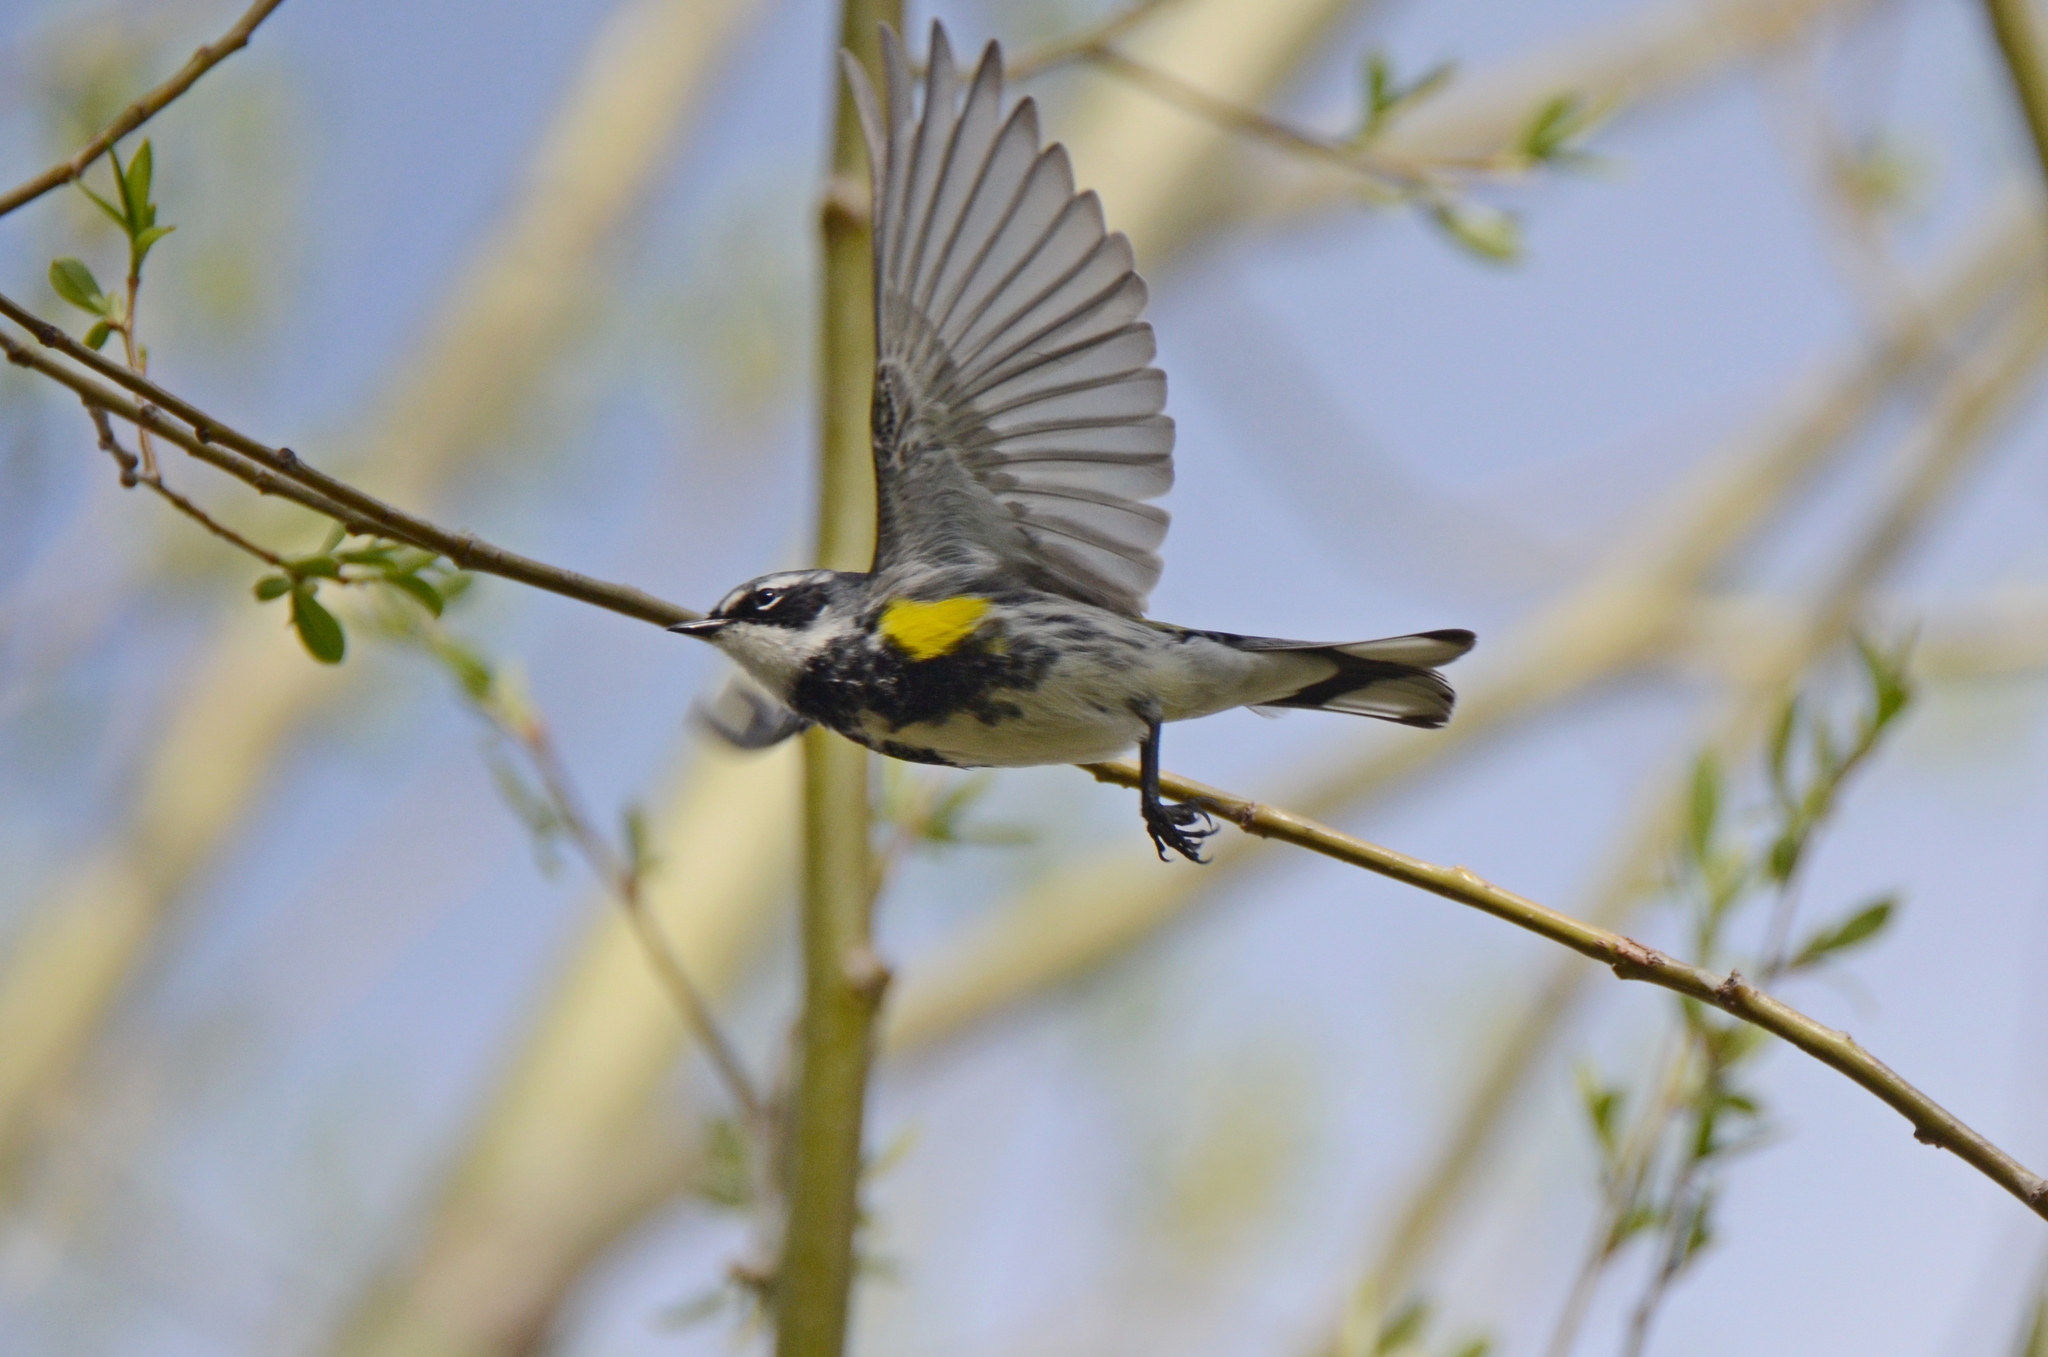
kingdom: Animalia
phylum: Chordata
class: Aves
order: Passeriformes
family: Parulidae
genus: Setophaga
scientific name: Setophaga coronata
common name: Myrtle warbler
